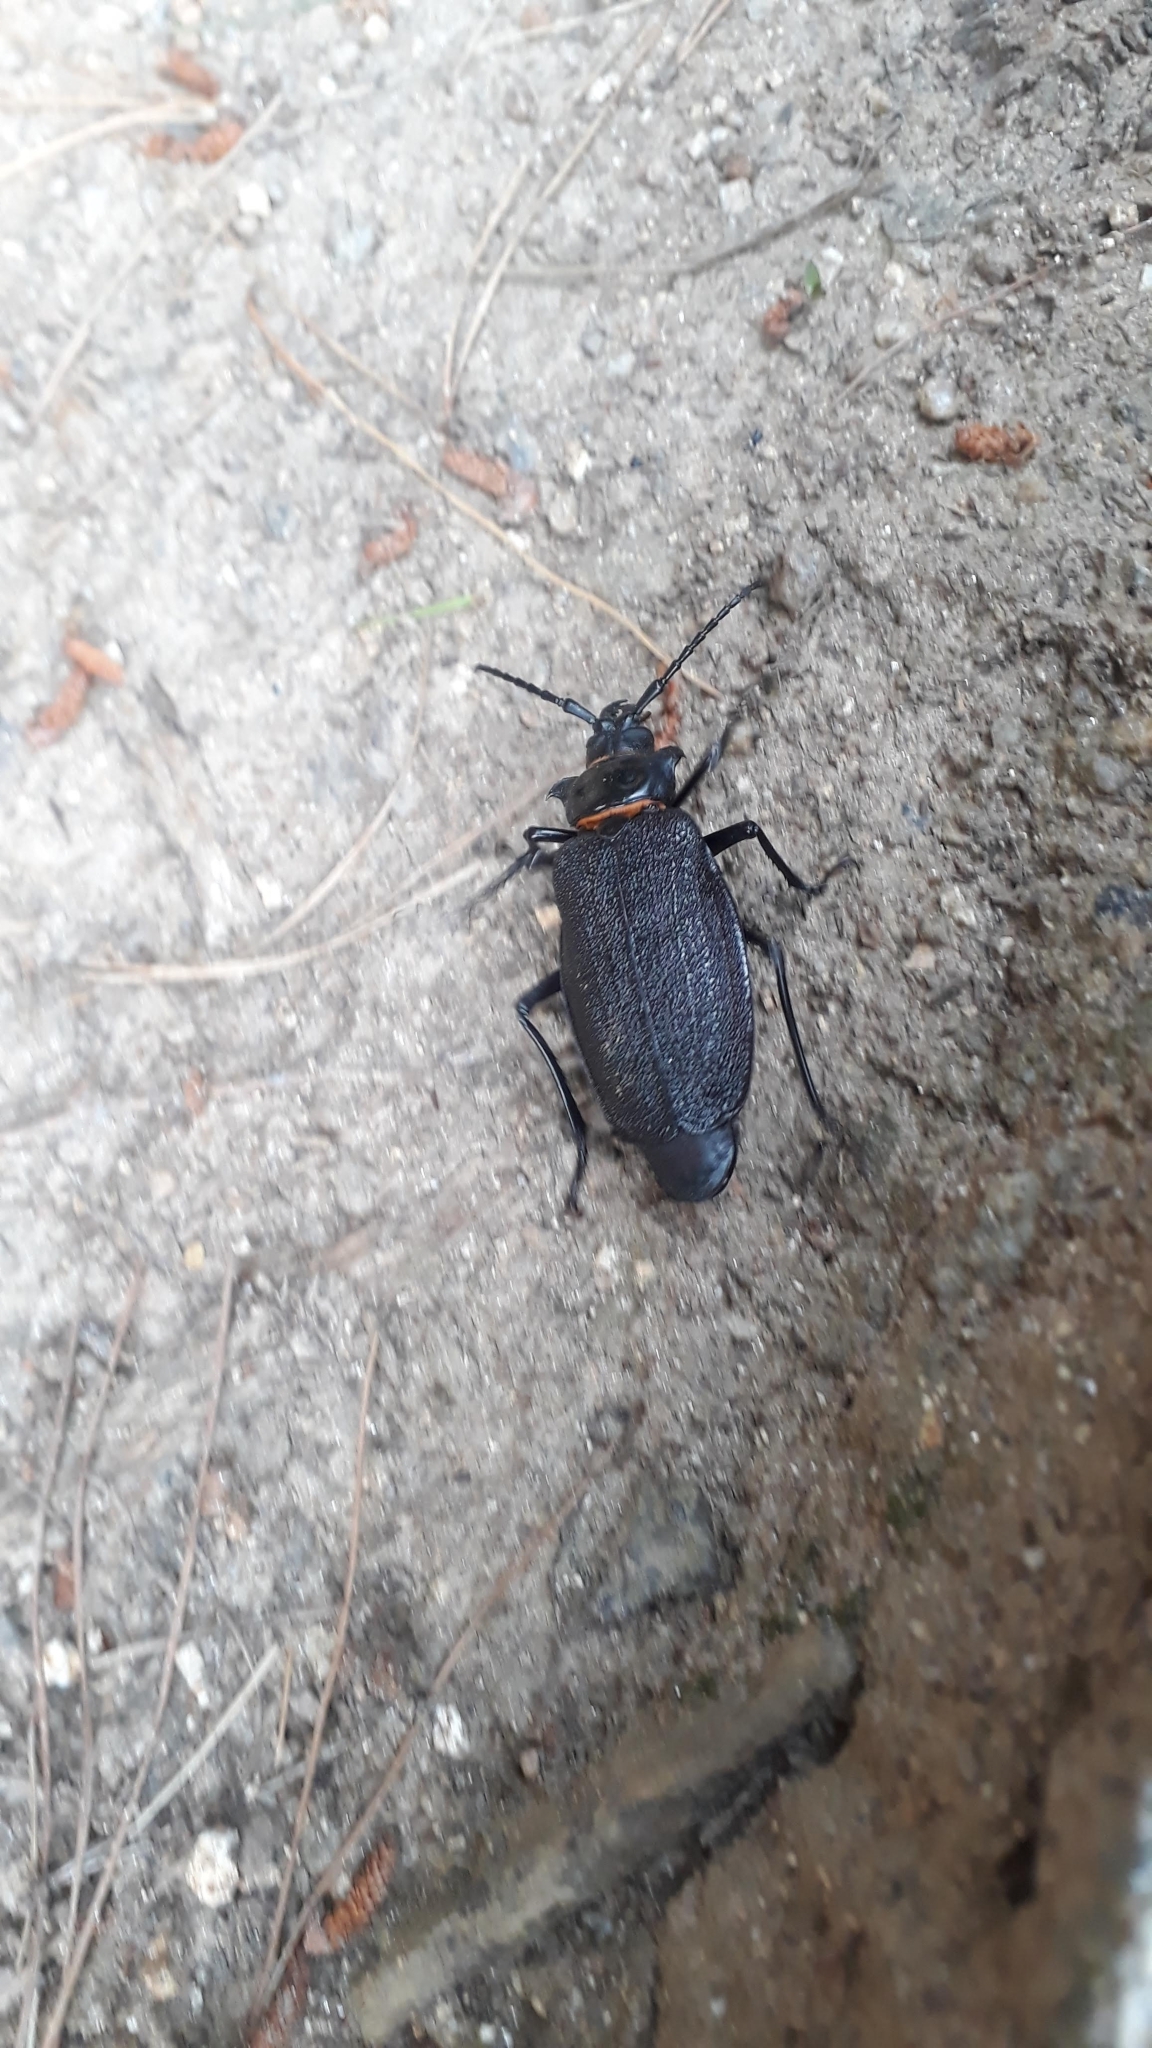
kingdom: Animalia
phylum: Arthropoda
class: Insecta
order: Coleoptera
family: Cerambycidae
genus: Acanthinodera
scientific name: Acanthinodera cumingii
